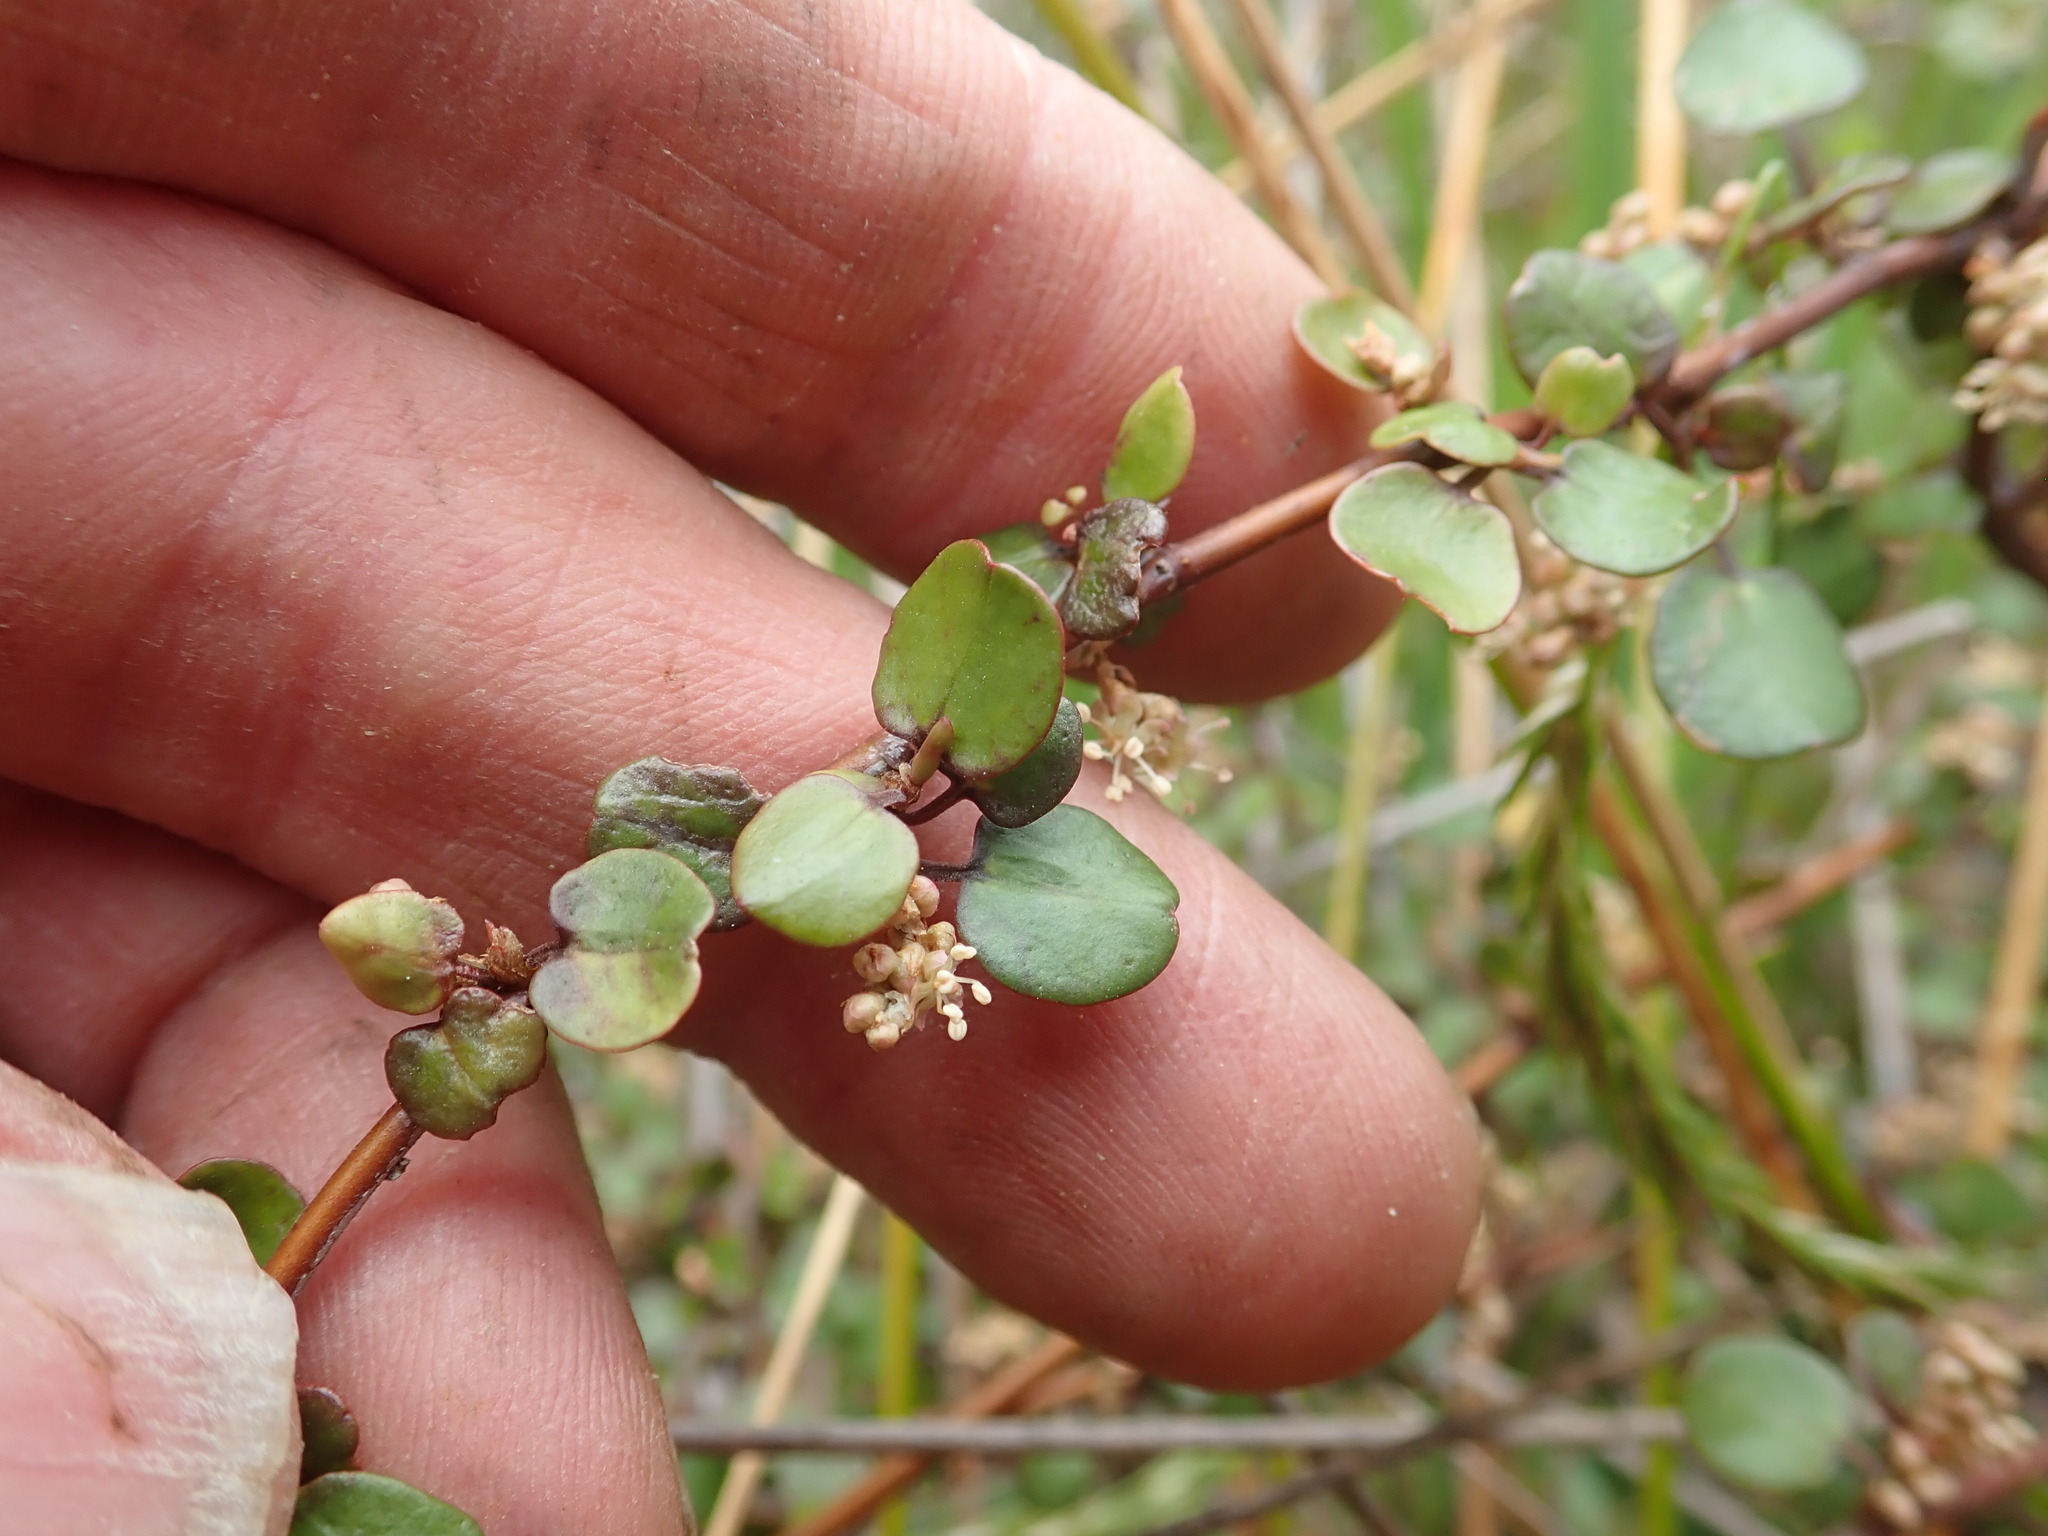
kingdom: Plantae
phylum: Tracheophyta
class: Magnoliopsida
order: Caryophyllales
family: Polygonaceae
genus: Muehlenbeckia
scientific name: Muehlenbeckia complexa
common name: Wireplant
